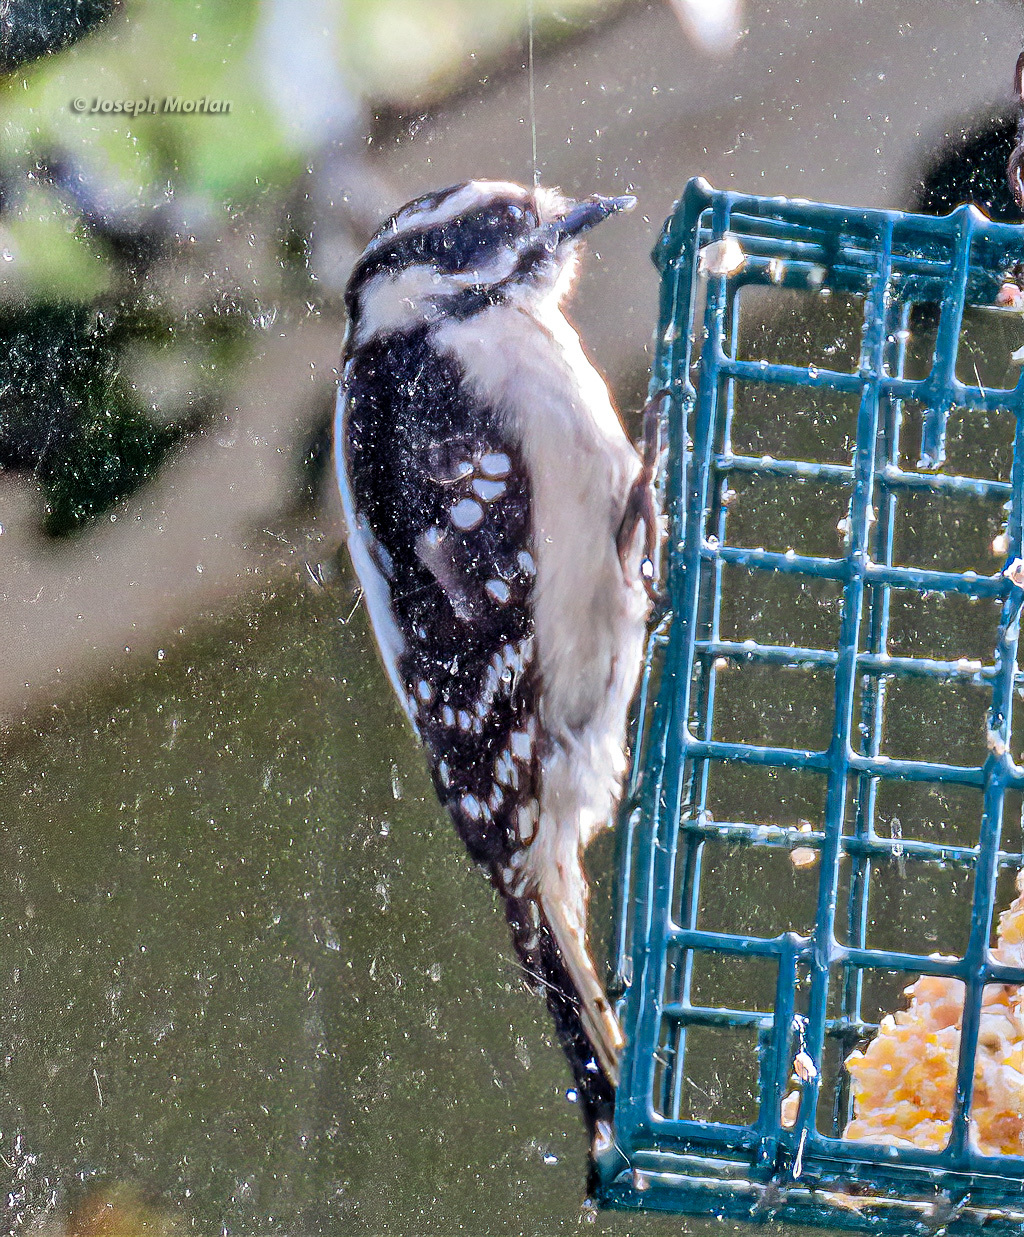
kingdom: Animalia
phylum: Chordata
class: Aves
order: Piciformes
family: Picidae
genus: Dryobates
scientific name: Dryobates pubescens
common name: Downy woodpecker
